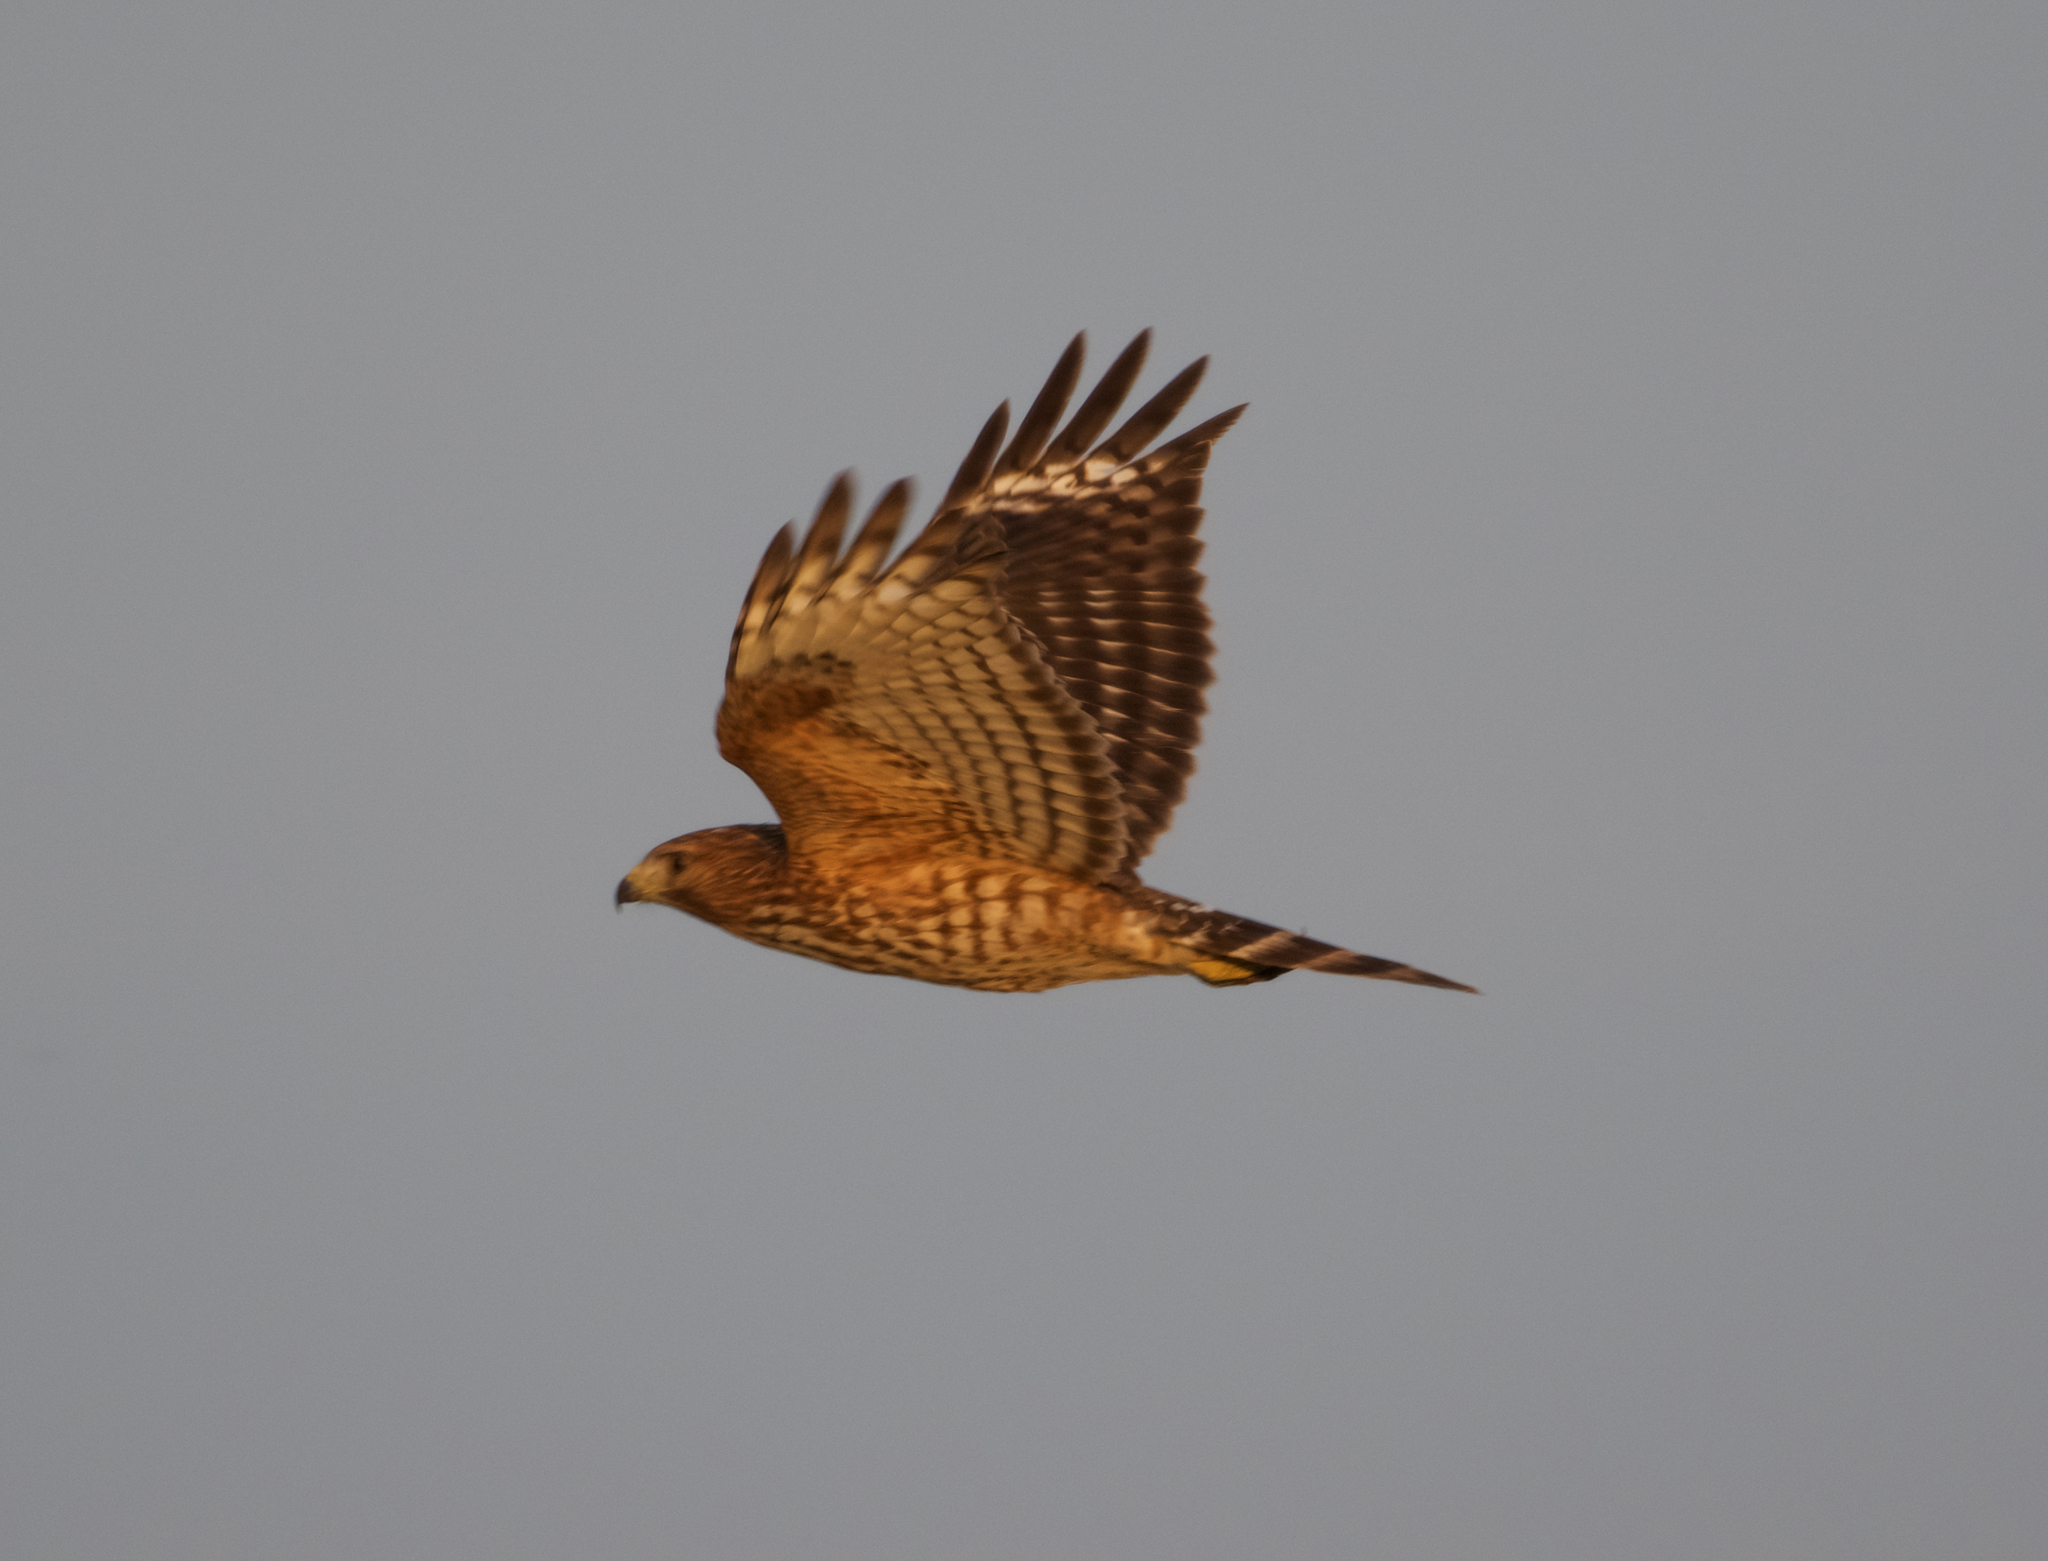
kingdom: Animalia
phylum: Chordata
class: Aves
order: Accipitriformes
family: Accipitridae
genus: Buteo
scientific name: Buteo lineatus
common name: Red-shouldered hawk
